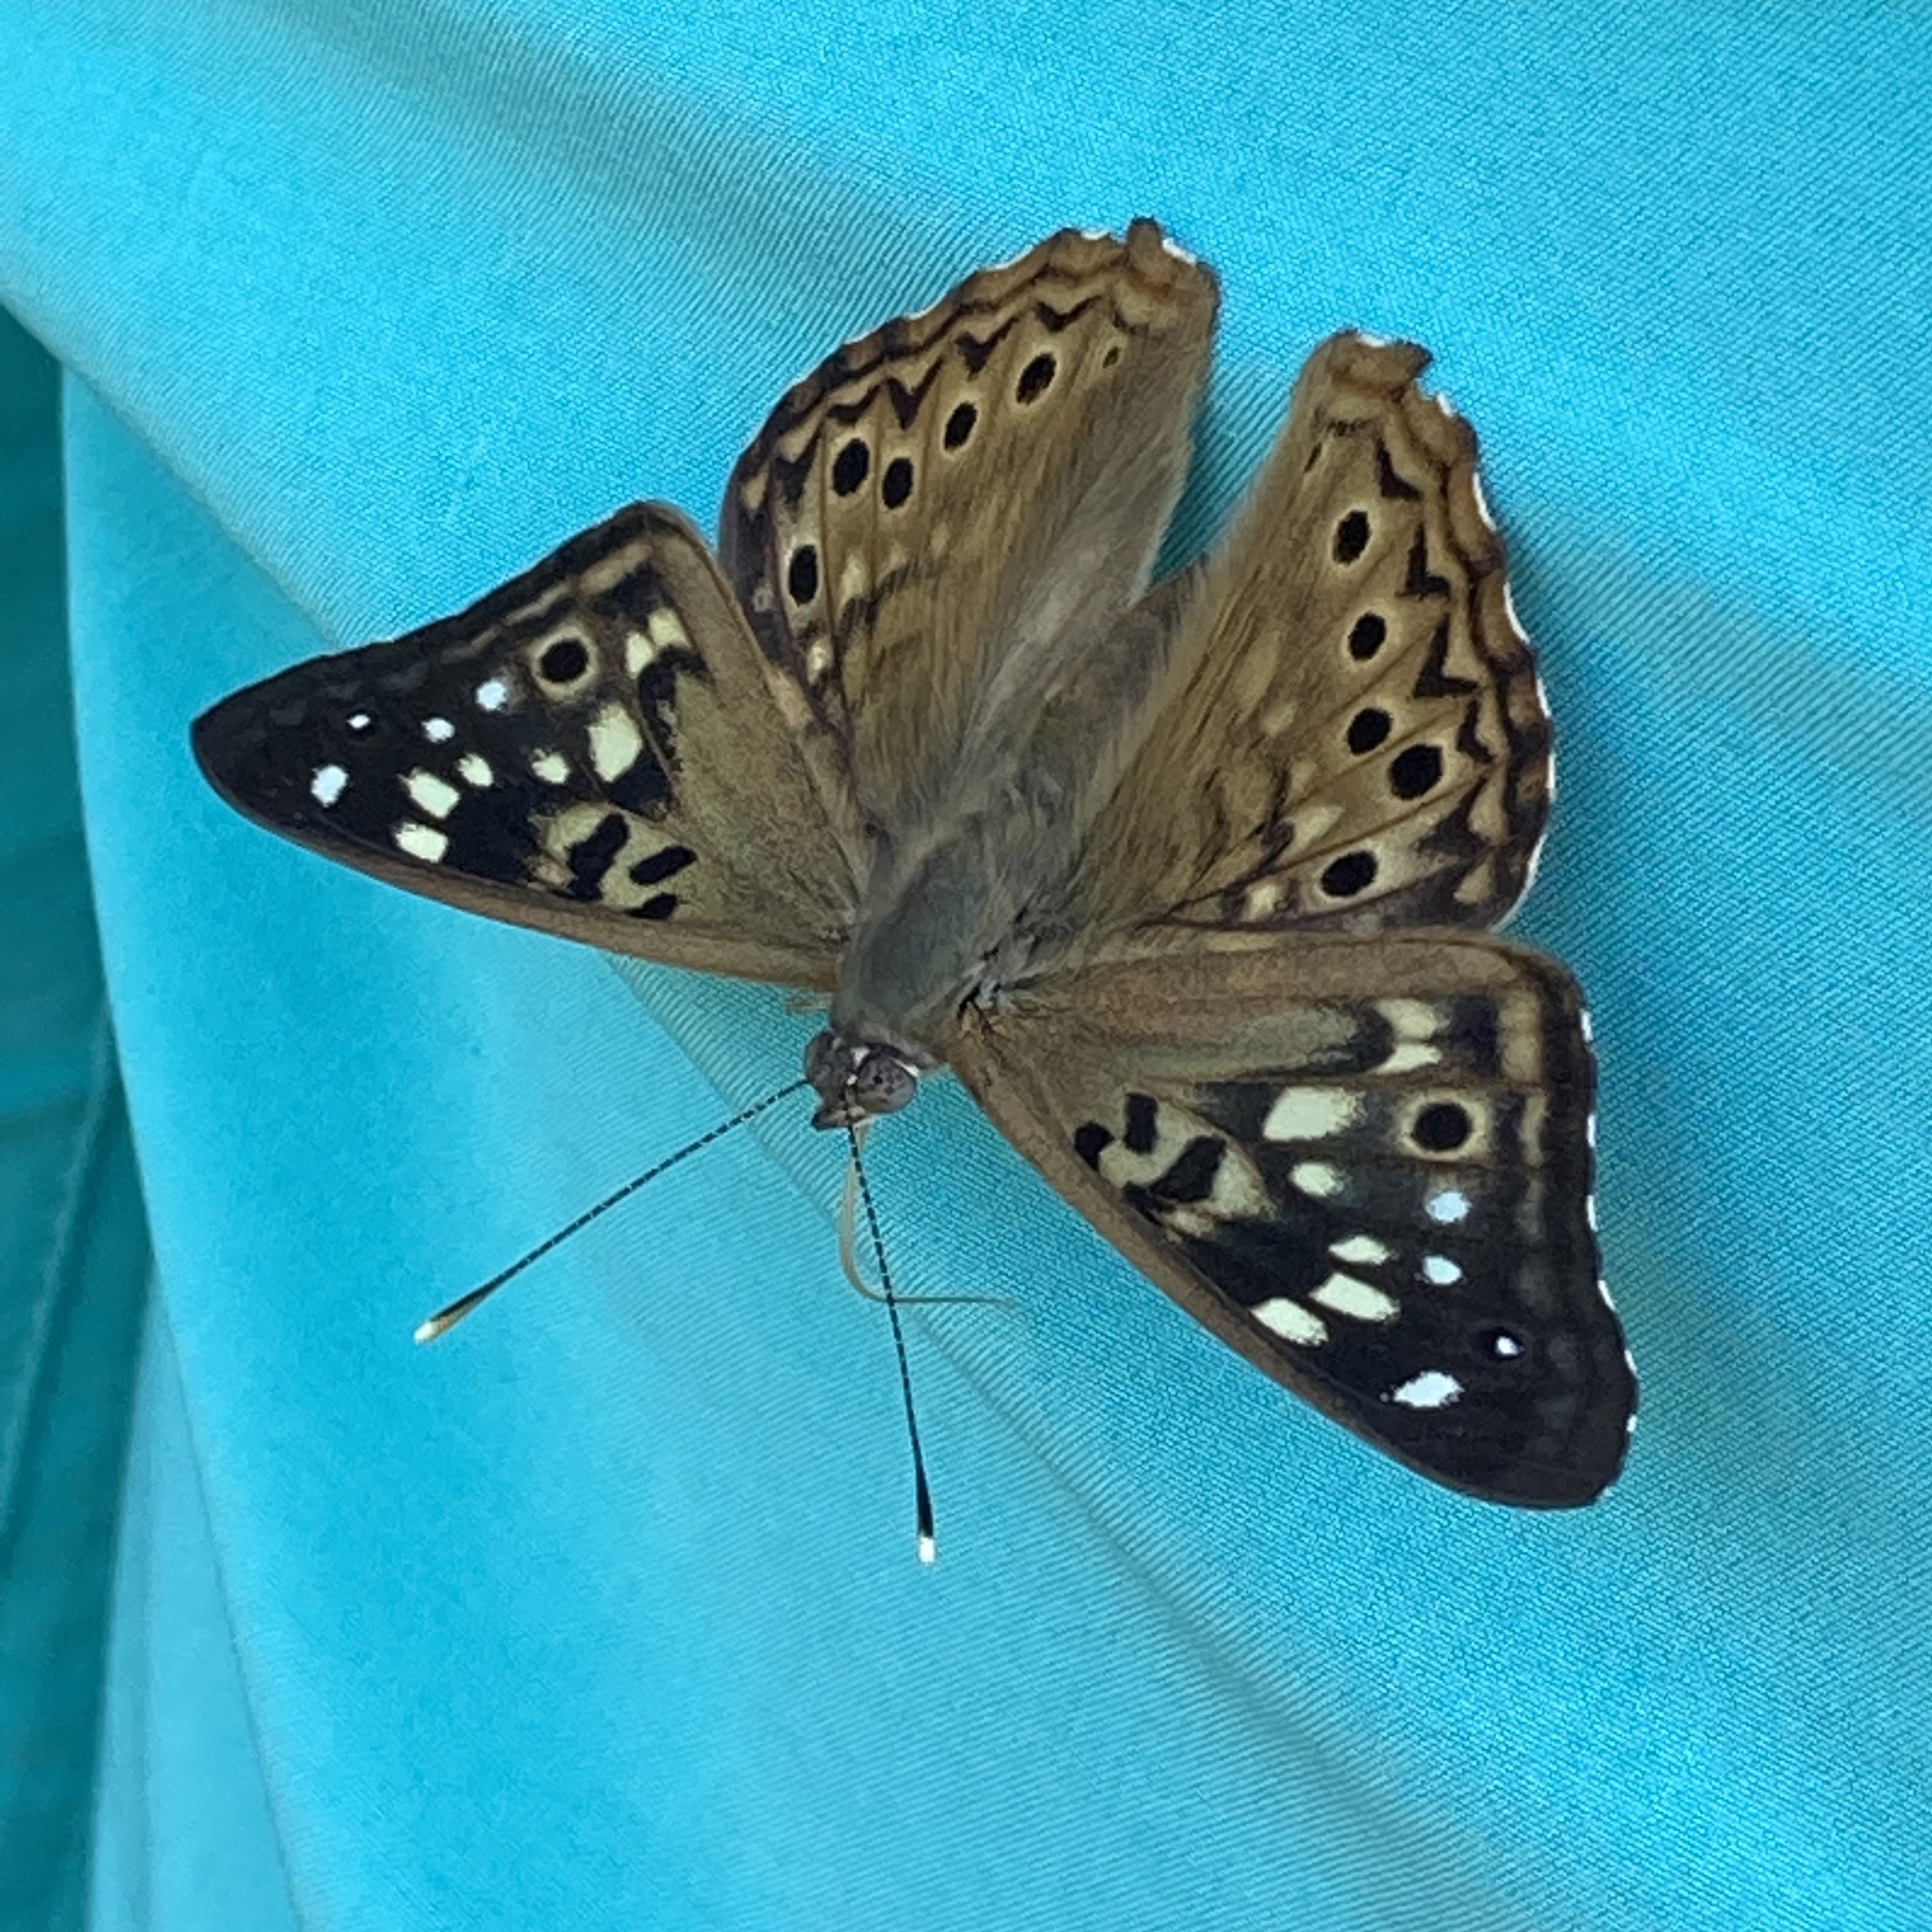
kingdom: Animalia
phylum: Arthropoda
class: Insecta
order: Lepidoptera
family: Nymphalidae
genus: Asterocampa
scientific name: Asterocampa celtis
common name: Hackberry emperor
